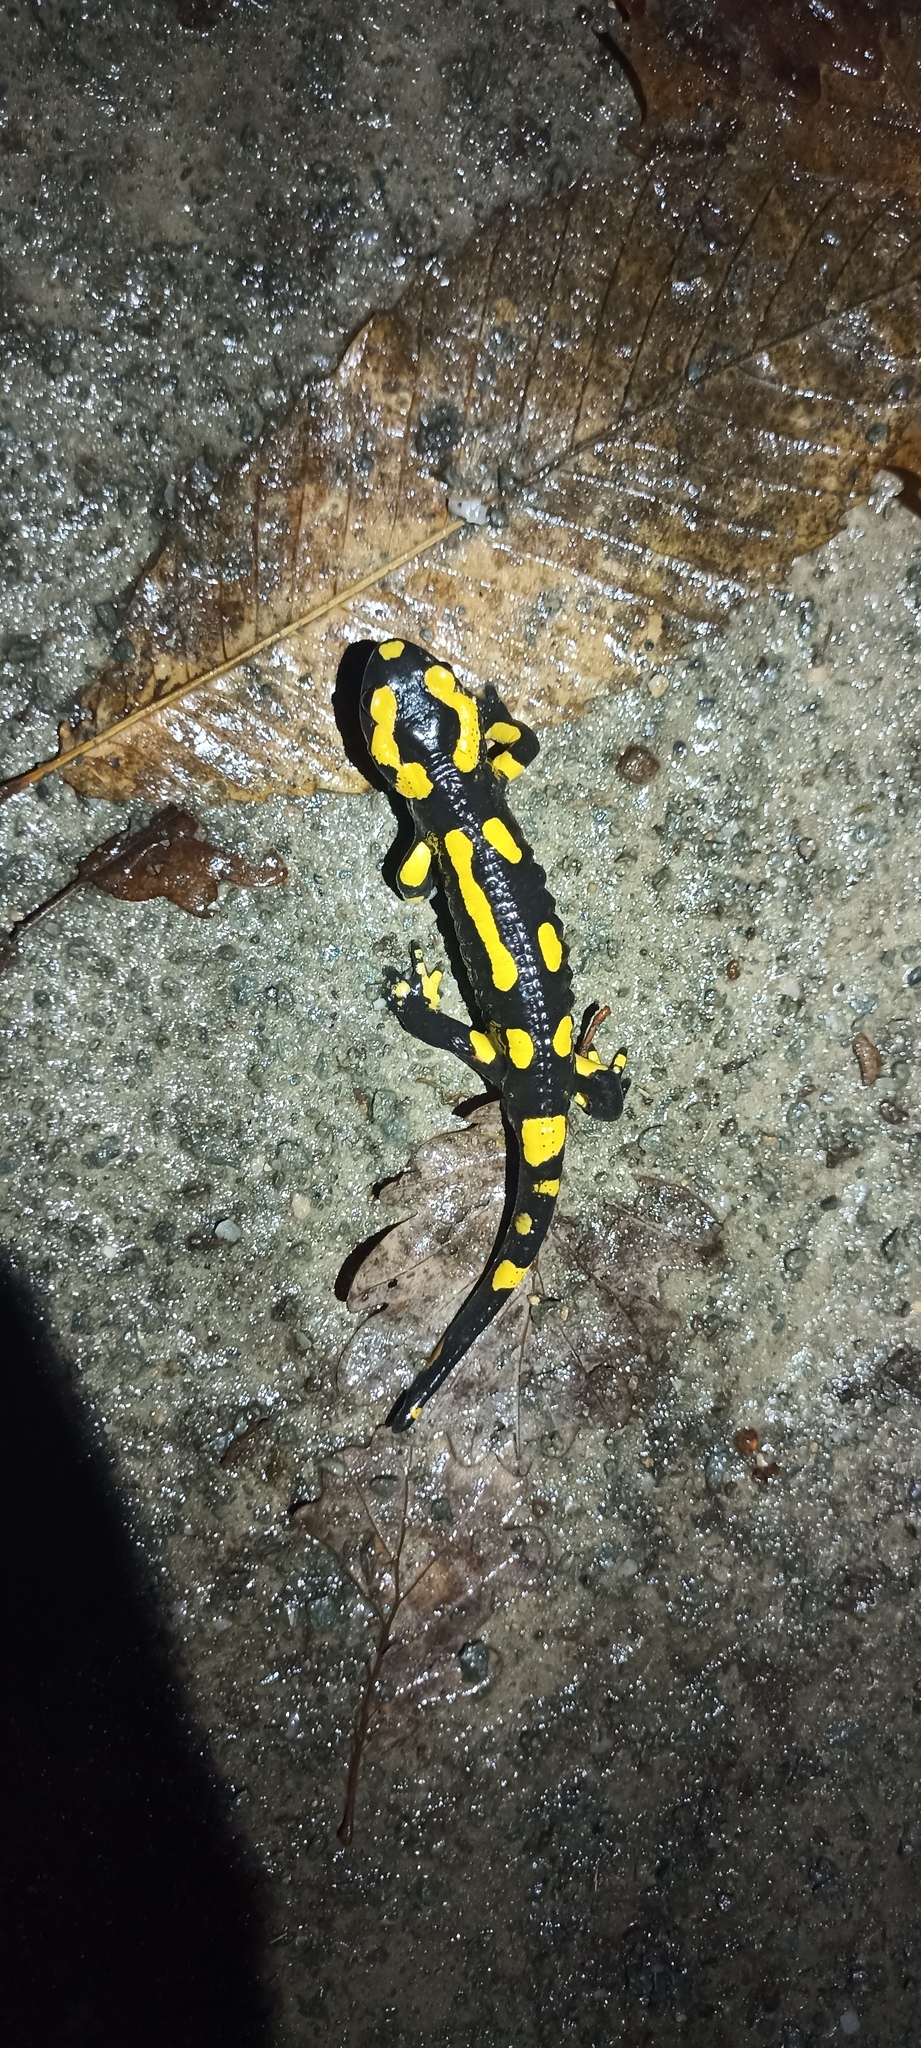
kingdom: Animalia
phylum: Chordata
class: Amphibia
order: Caudata
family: Salamandridae
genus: Salamandra
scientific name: Salamandra salamandra
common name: Fire salamander
